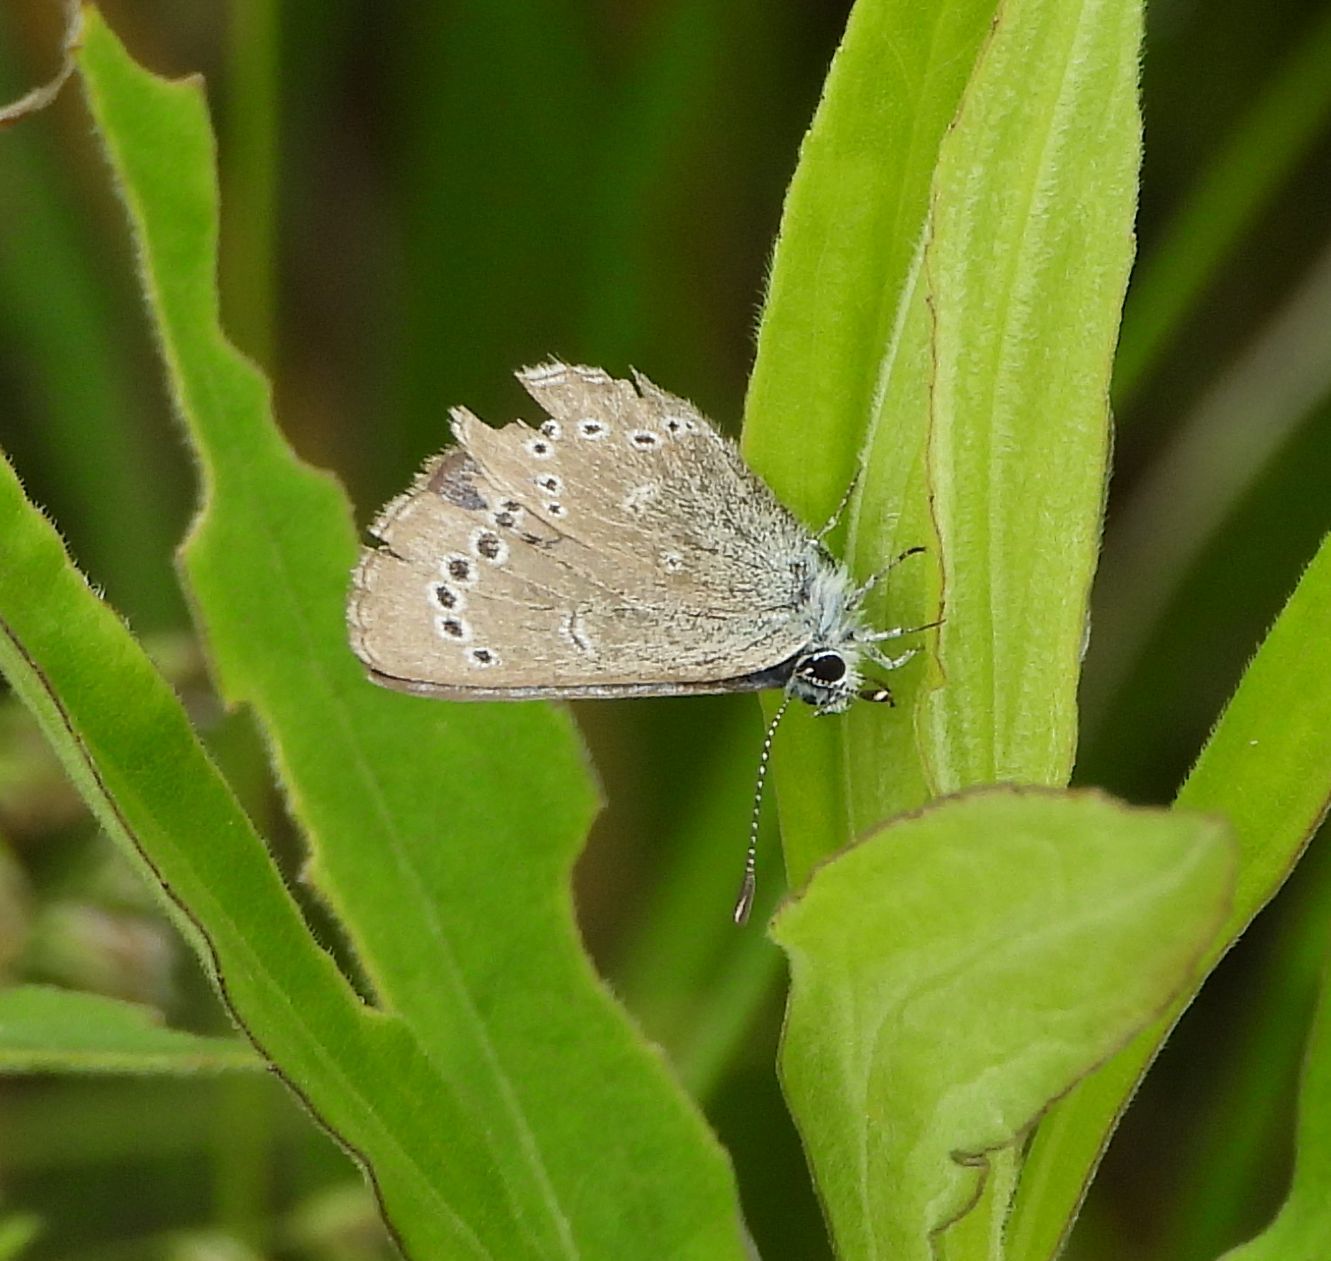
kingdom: Animalia
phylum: Arthropoda
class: Insecta
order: Lepidoptera
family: Lycaenidae
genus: Glaucopsyche
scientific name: Glaucopsyche lygdamus
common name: Silvery blue
